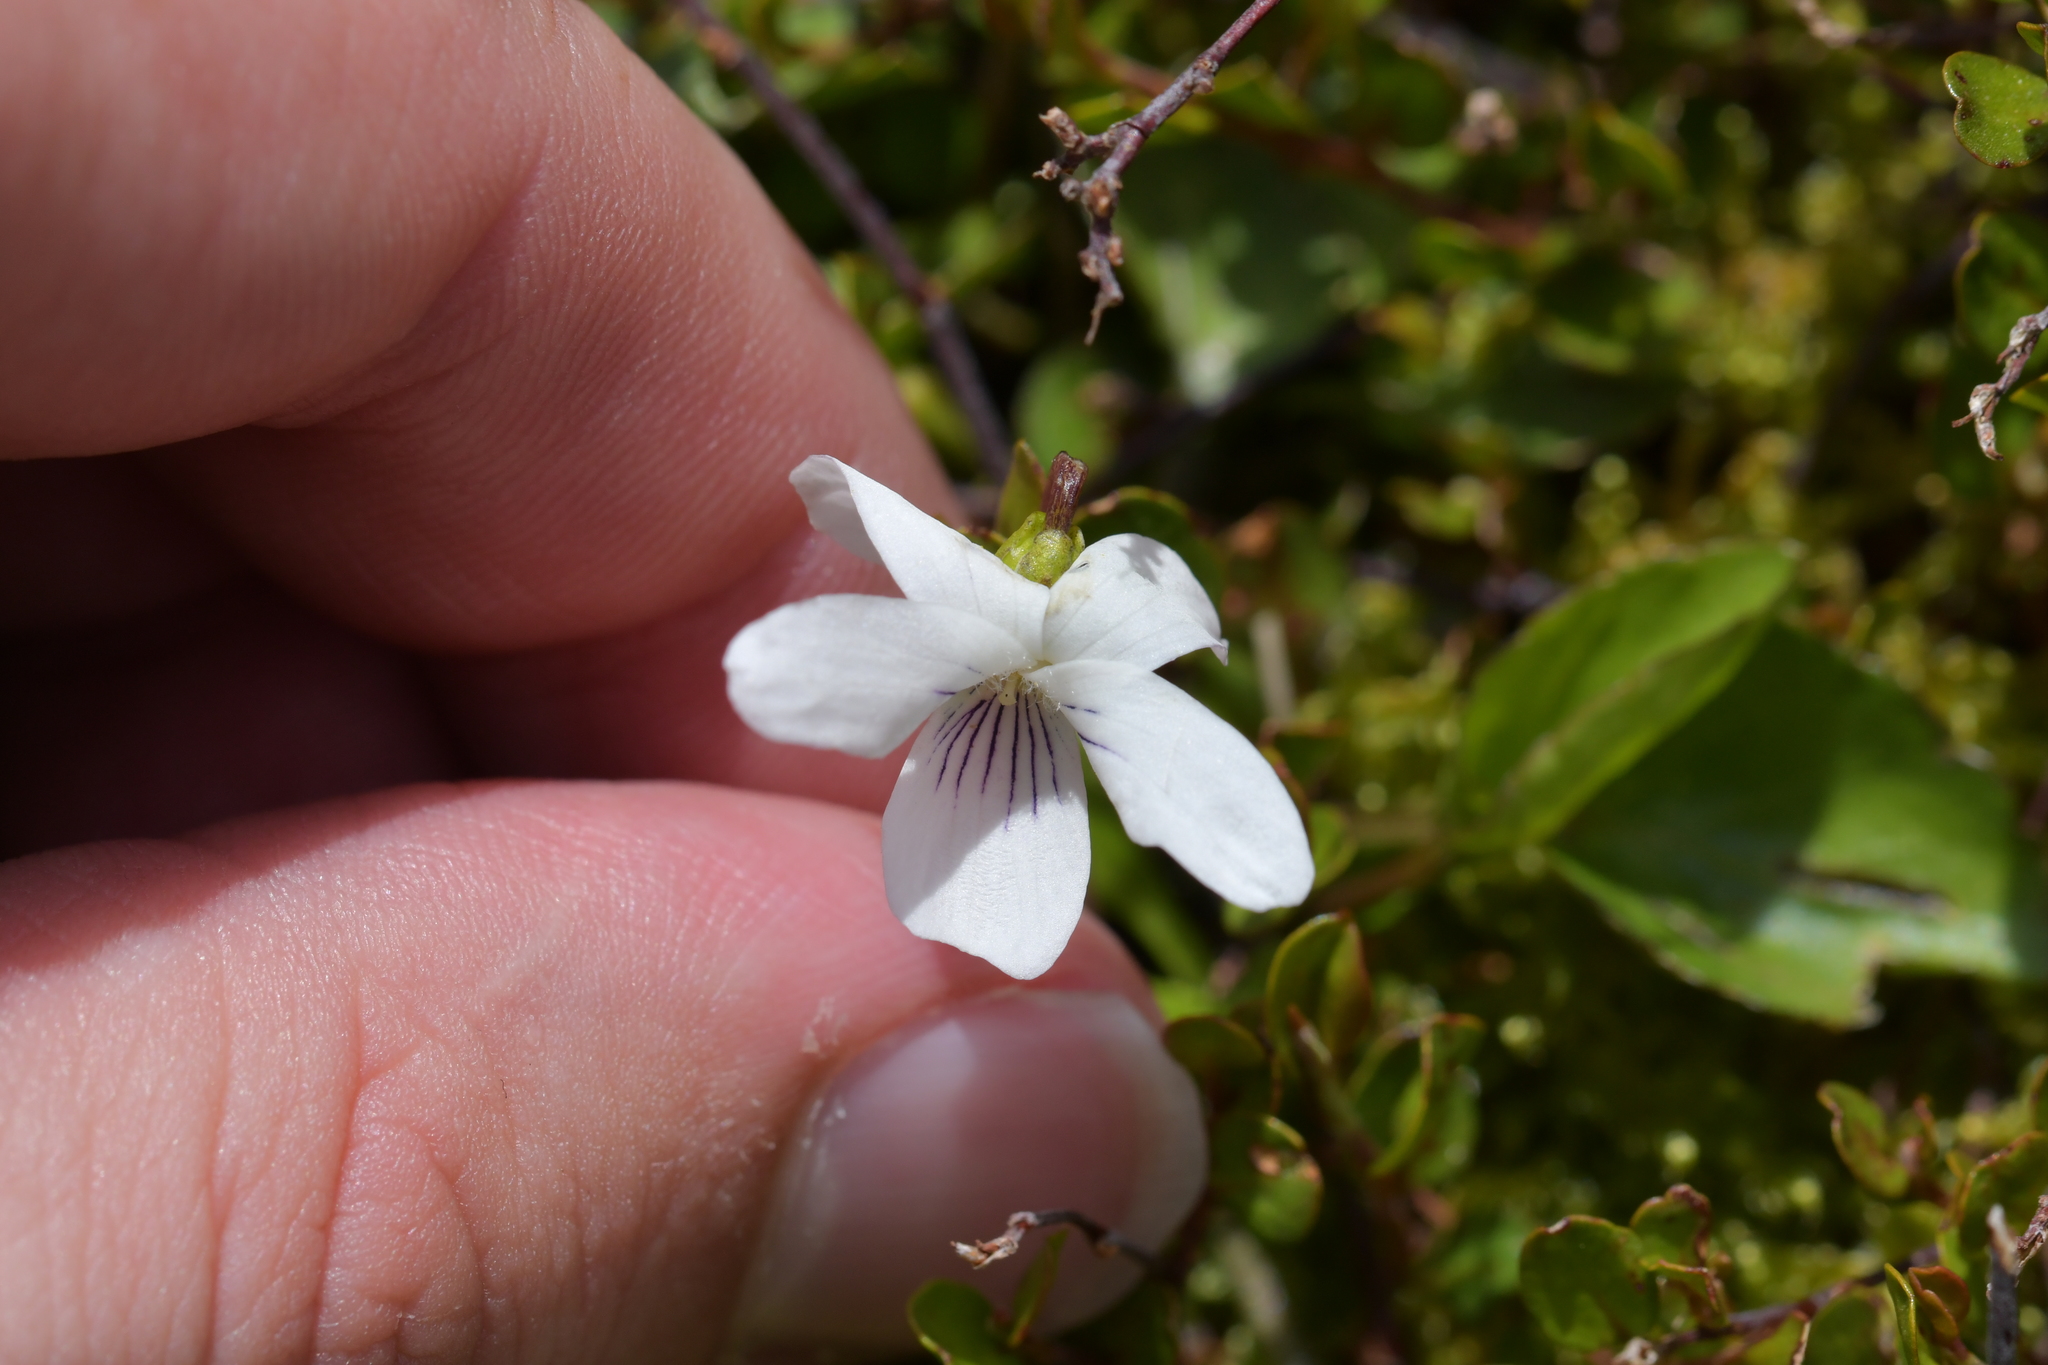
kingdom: Plantae
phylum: Tracheophyta
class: Magnoliopsida
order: Malpighiales
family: Violaceae
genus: Viola
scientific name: Viola cunninghamii
